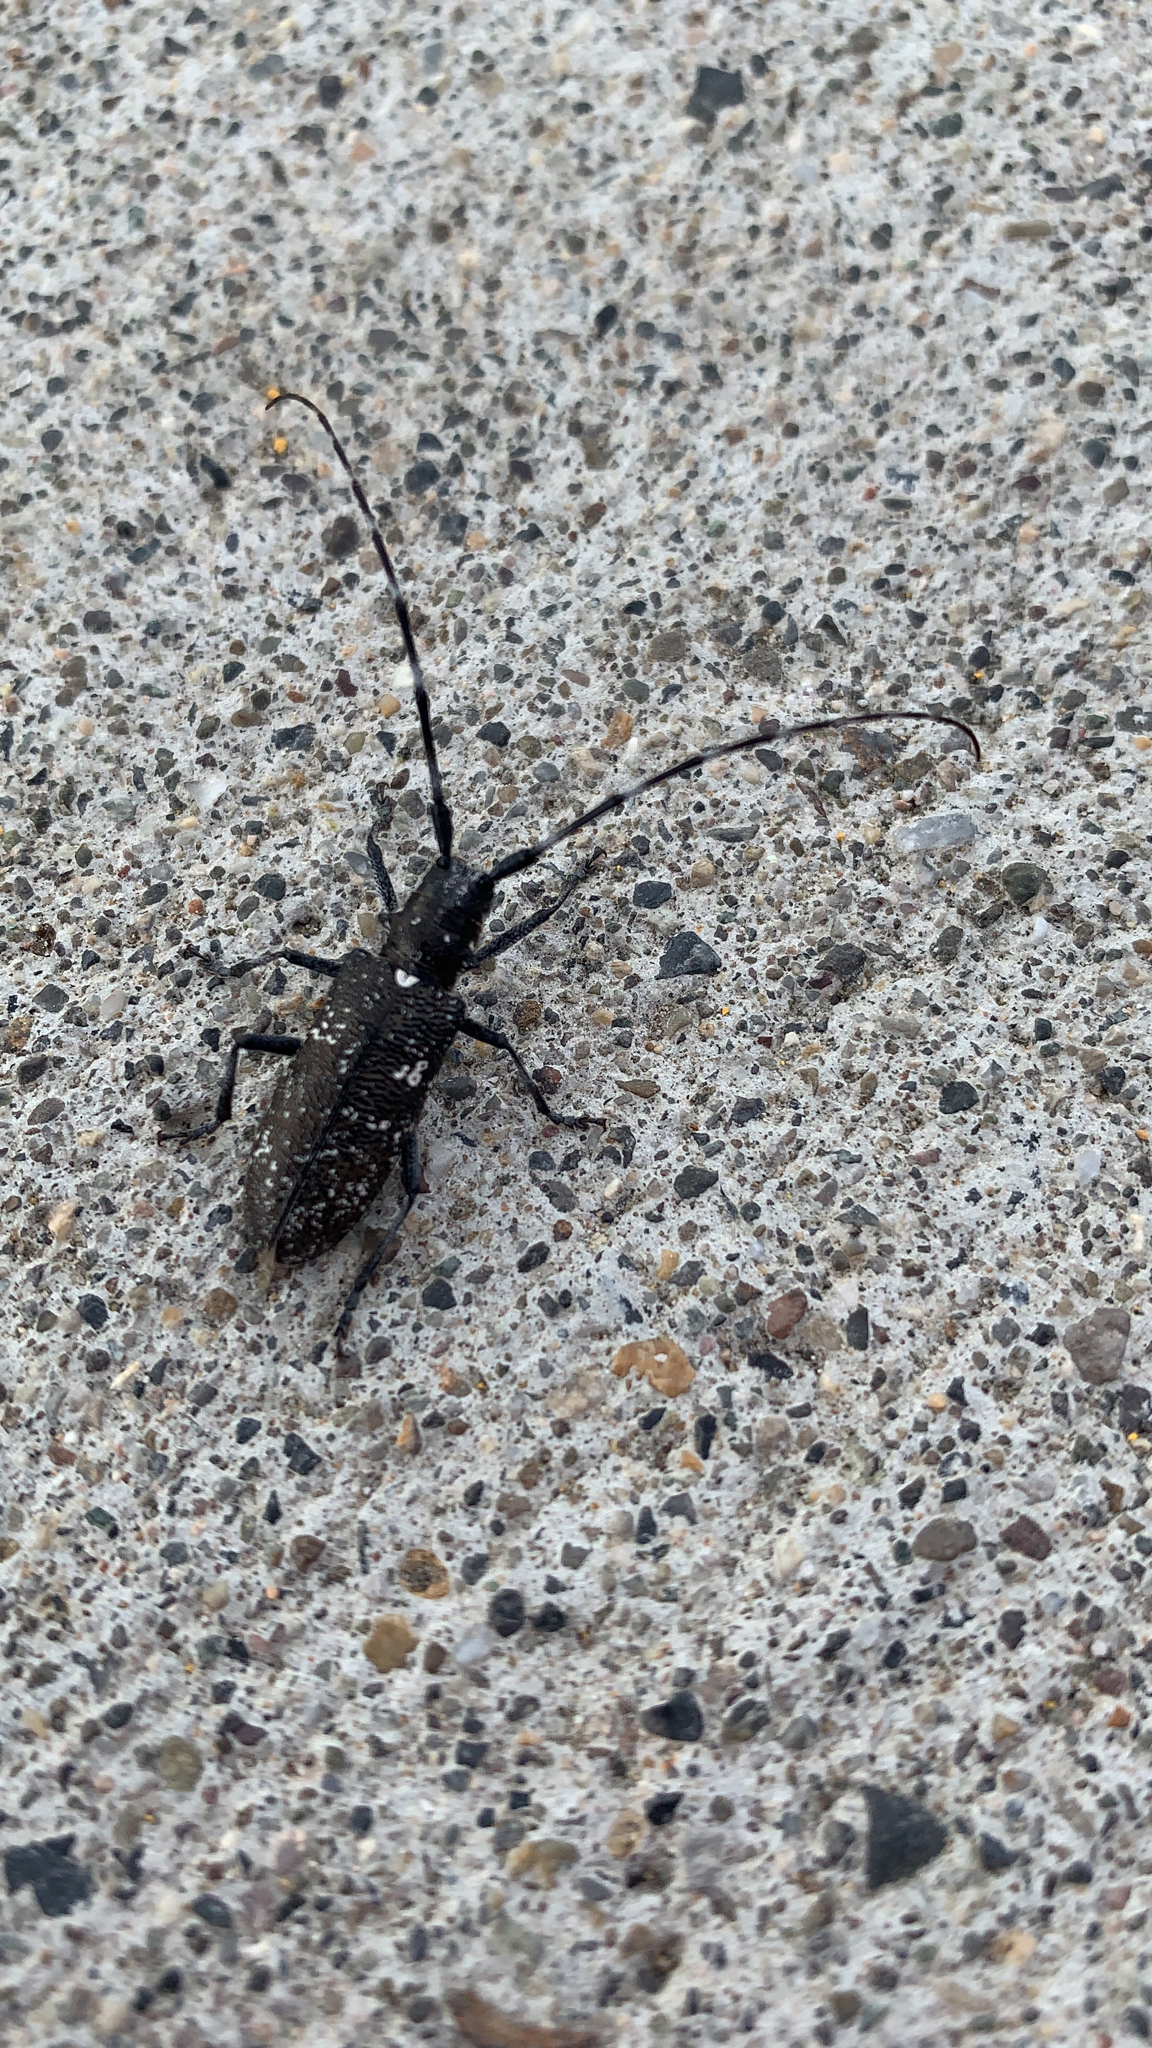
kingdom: Animalia
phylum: Arthropoda
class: Insecta
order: Coleoptera
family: Cerambycidae
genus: Monochamus
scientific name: Monochamus scutellatus
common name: White-spotted sawyer beetle
